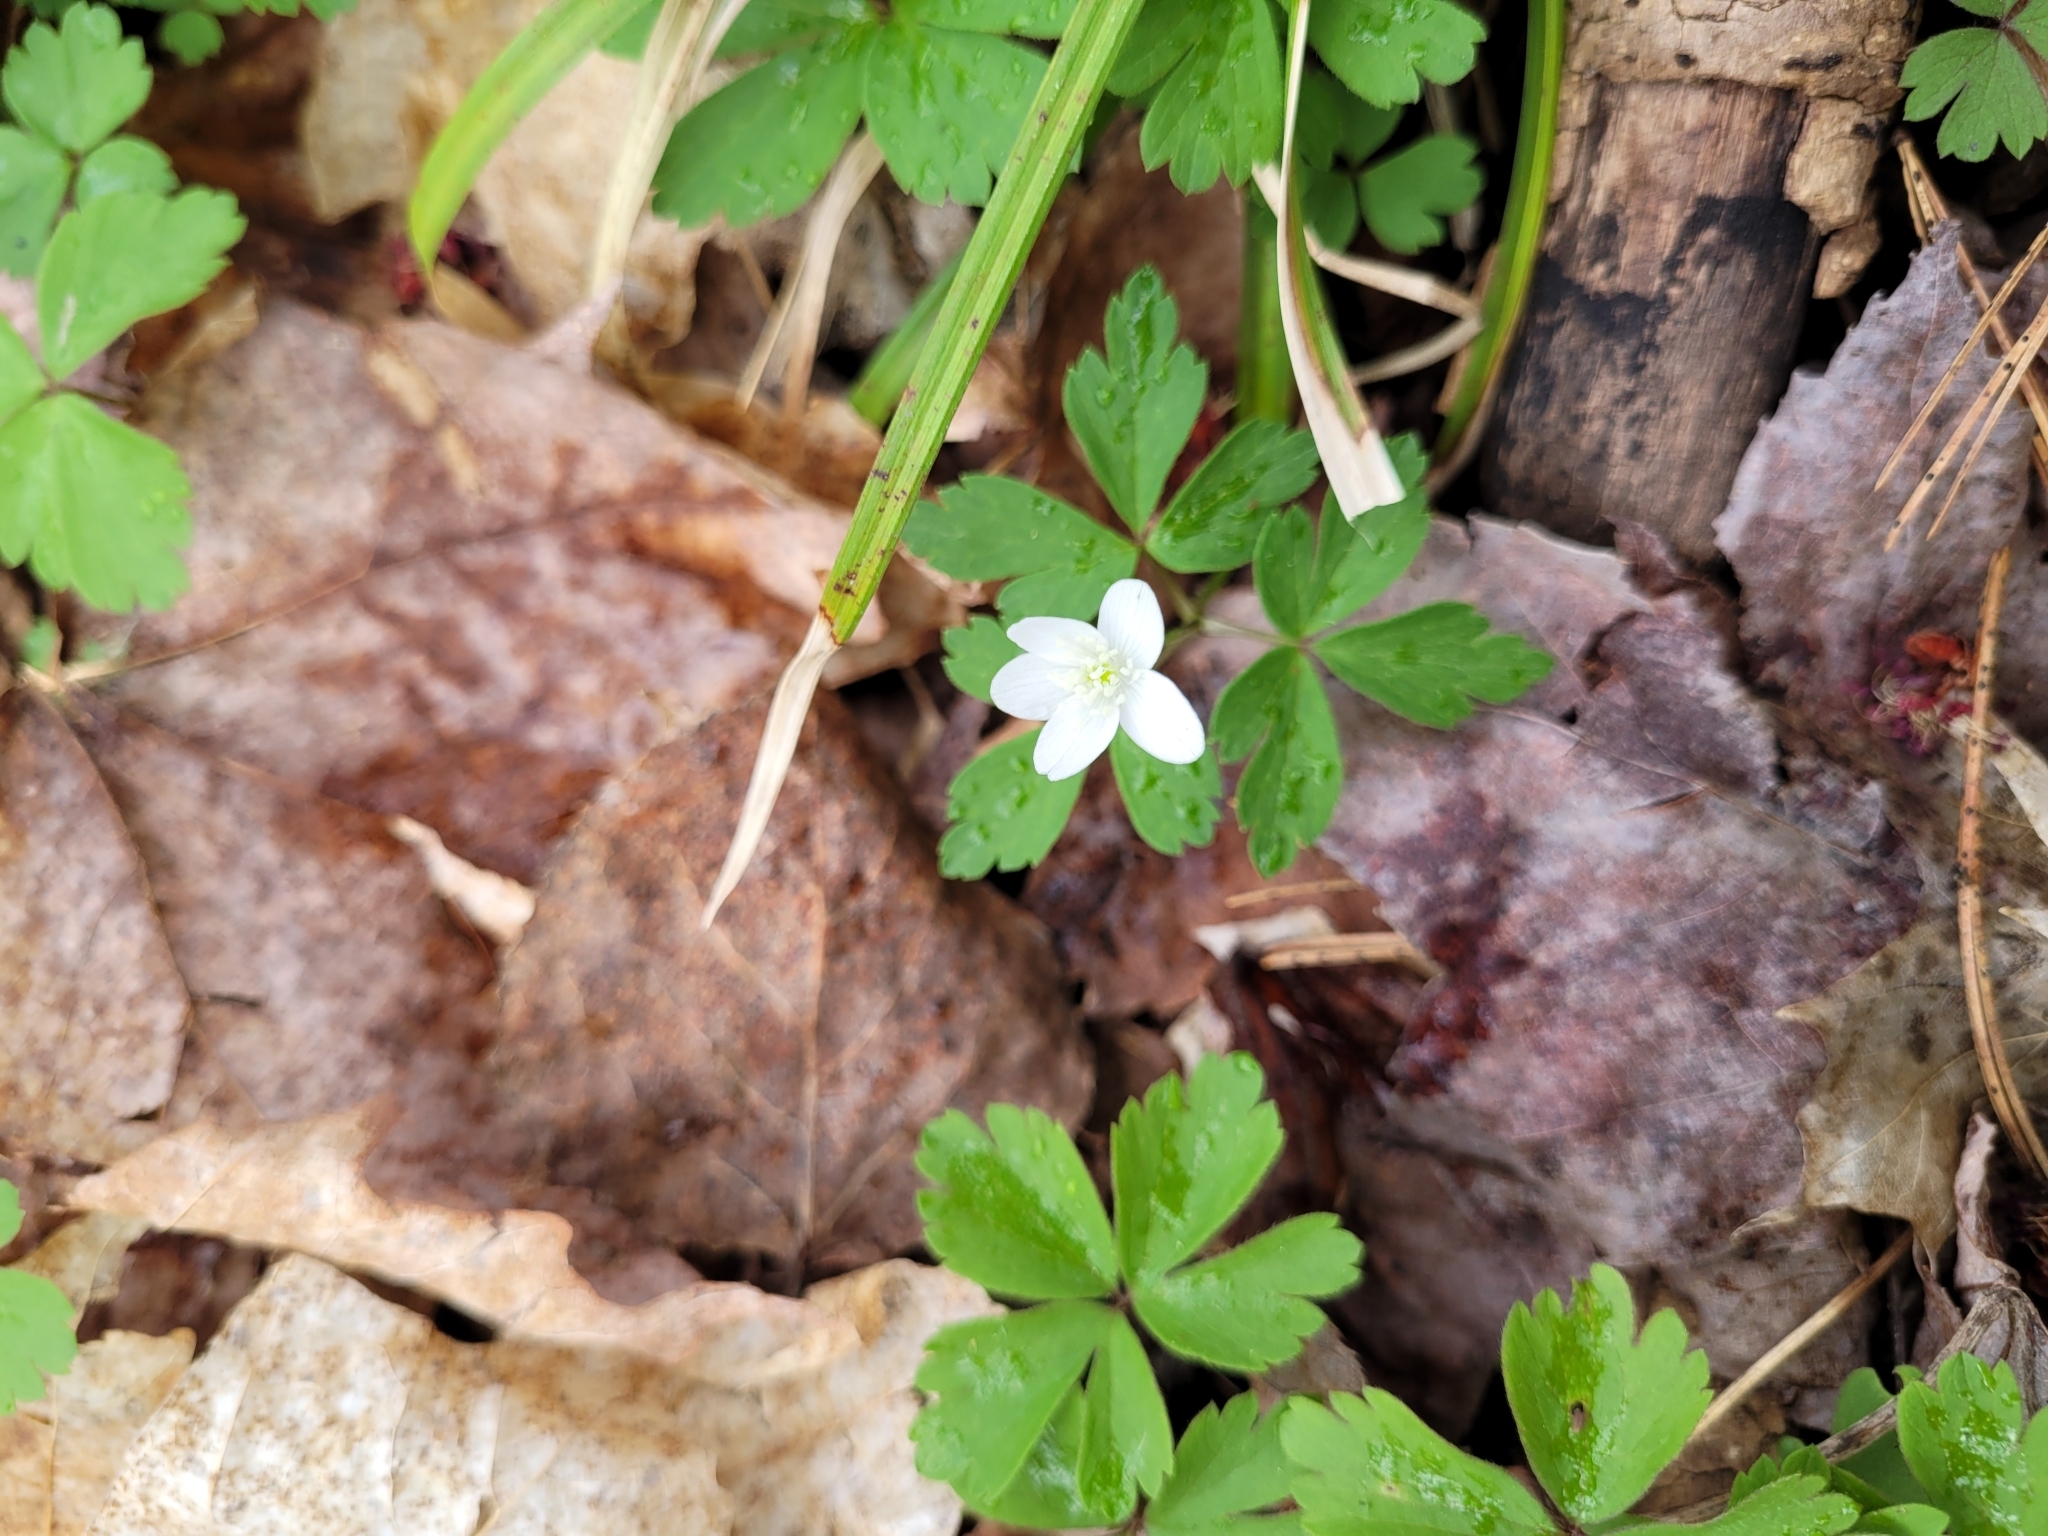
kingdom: Plantae
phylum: Tracheophyta
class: Magnoliopsida
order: Ranunculales
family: Ranunculaceae
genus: Anemone
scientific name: Anemone quinquefolia
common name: Wood anemone
